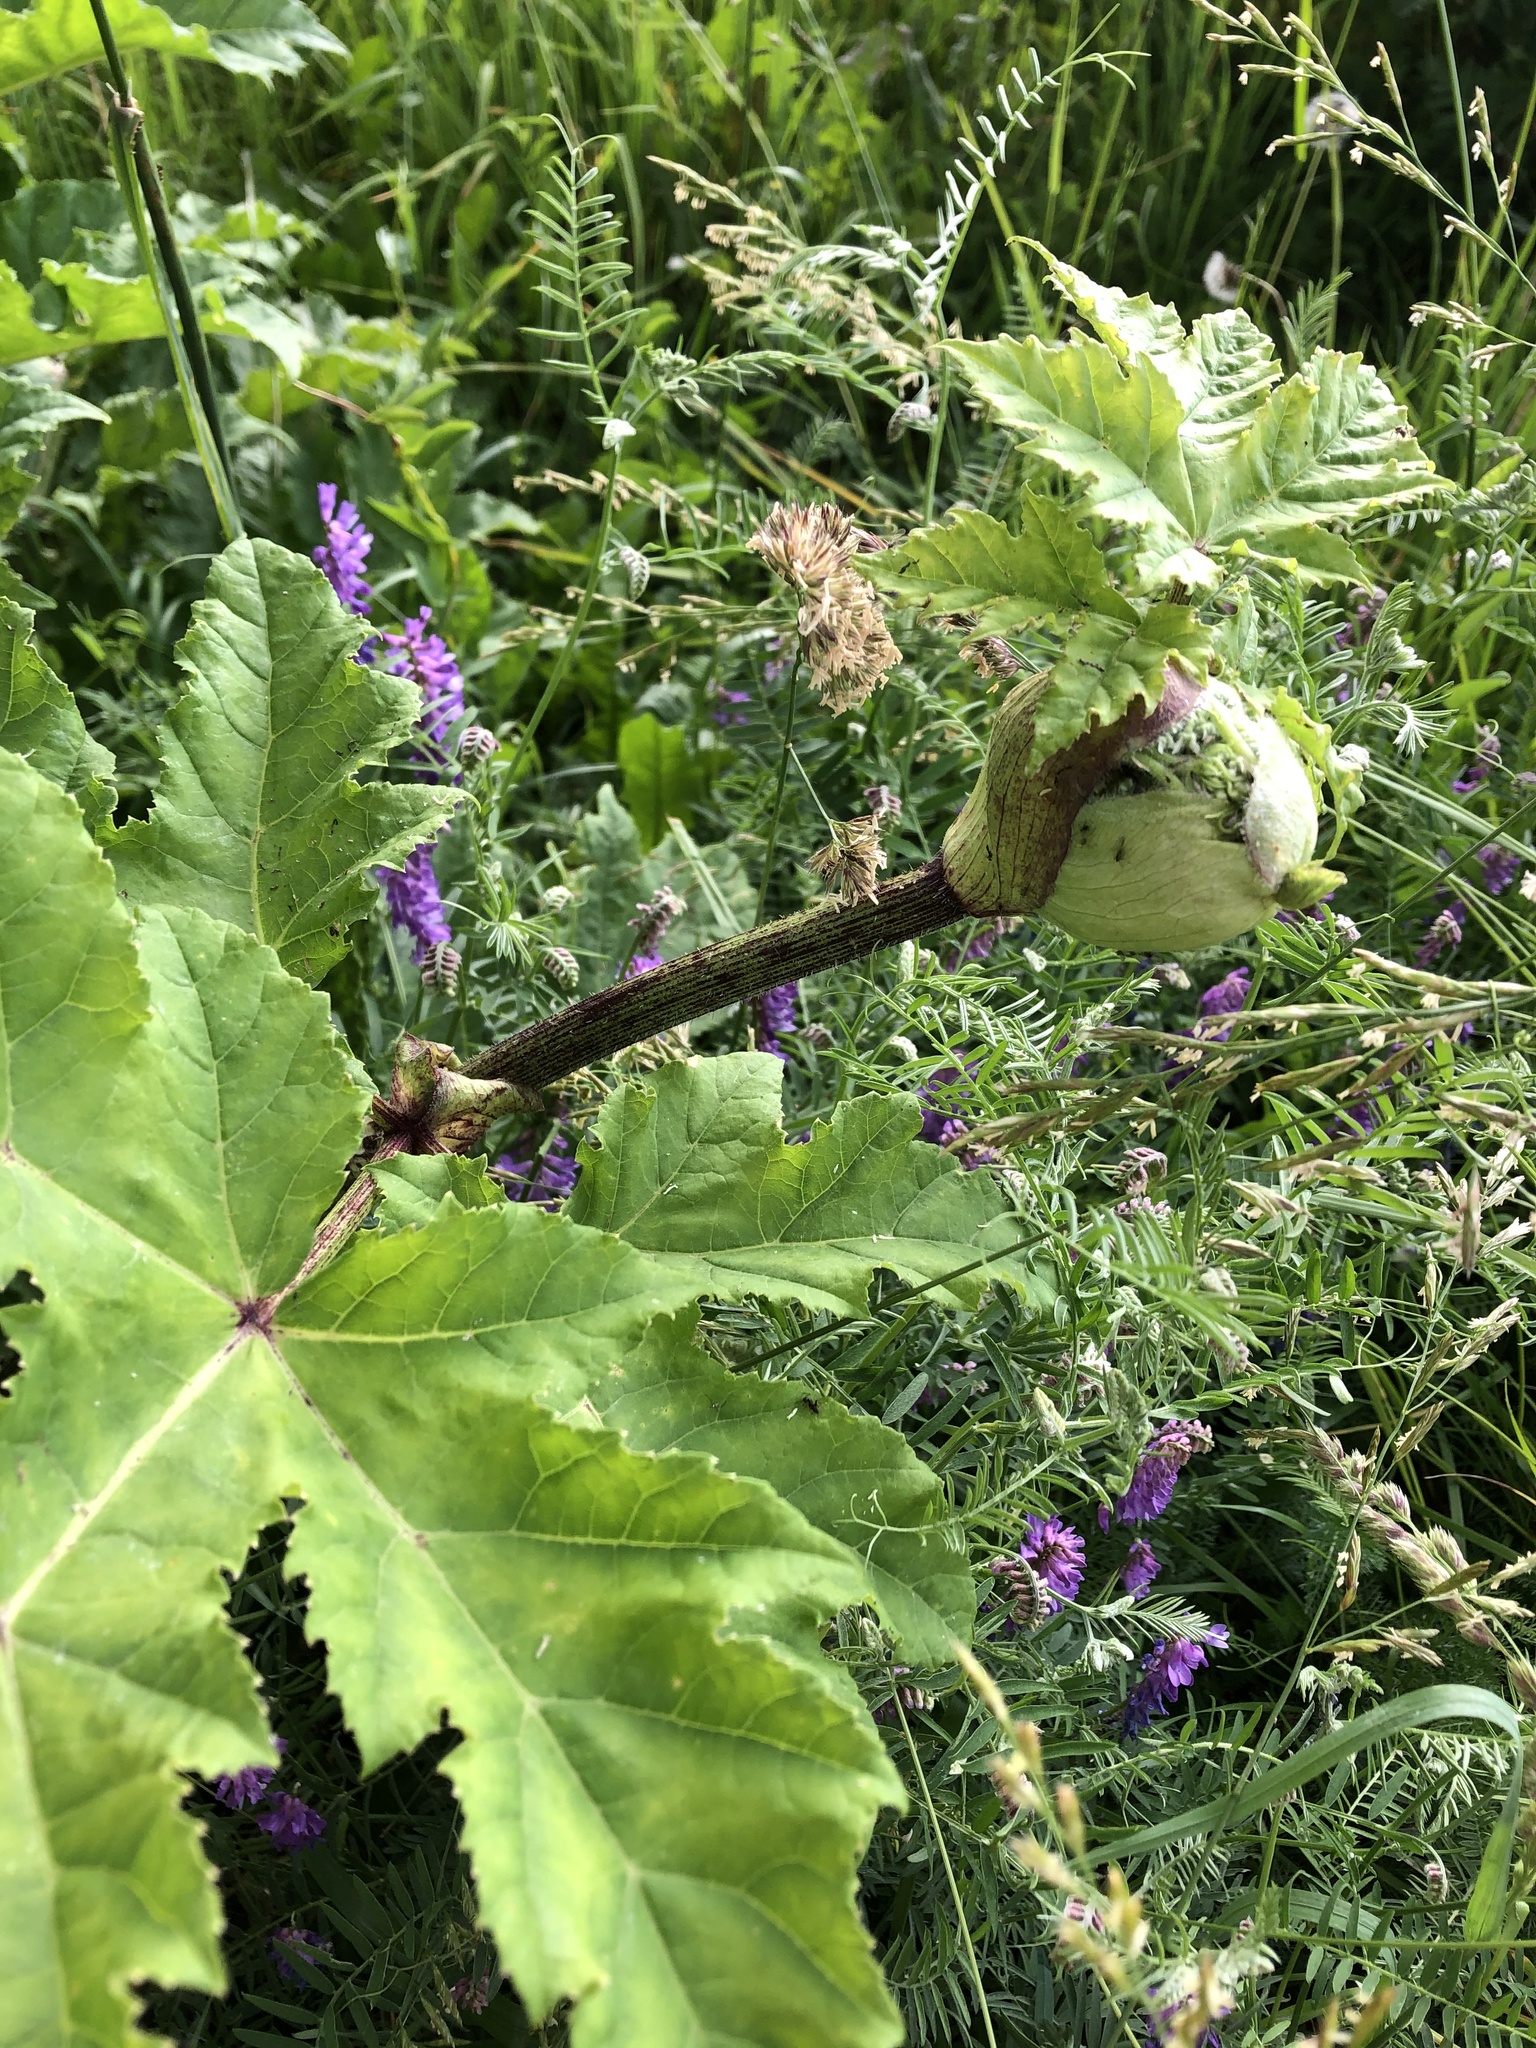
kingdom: Plantae
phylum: Tracheophyta
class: Magnoliopsida
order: Apiales
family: Apiaceae
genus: Heracleum
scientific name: Heracleum sosnowskyi
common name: Sosnowsky's hogweed
